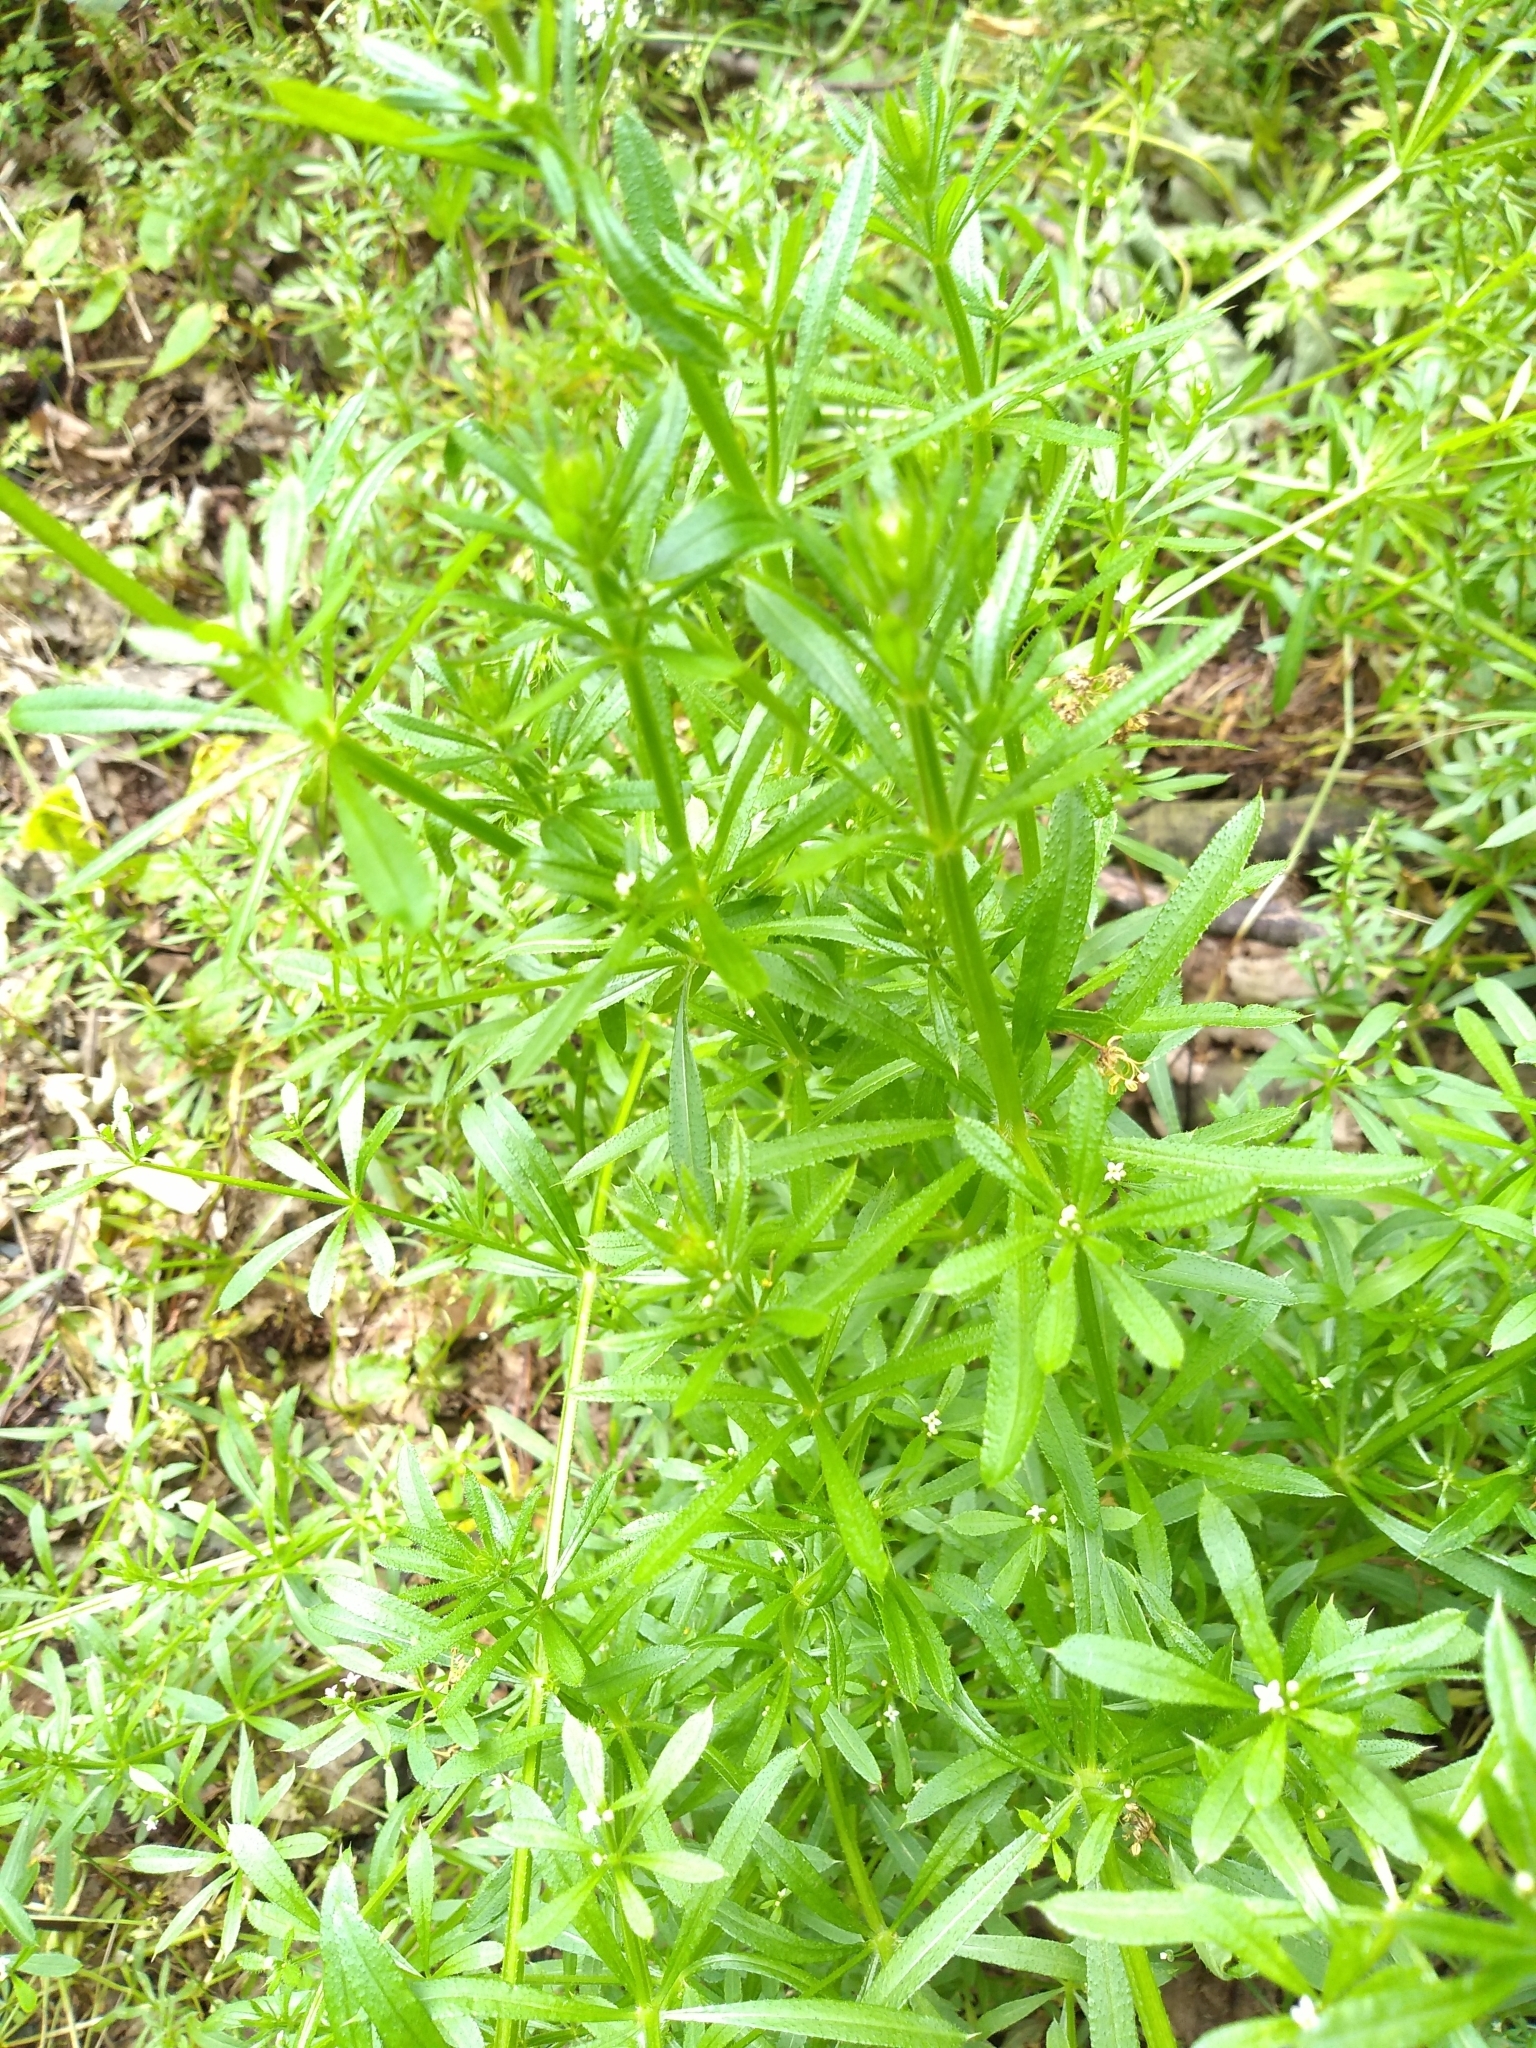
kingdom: Plantae
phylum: Tracheophyta
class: Magnoliopsida
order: Gentianales
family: Rubiaceae
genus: Galium
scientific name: Galium aparine
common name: Cleavers
